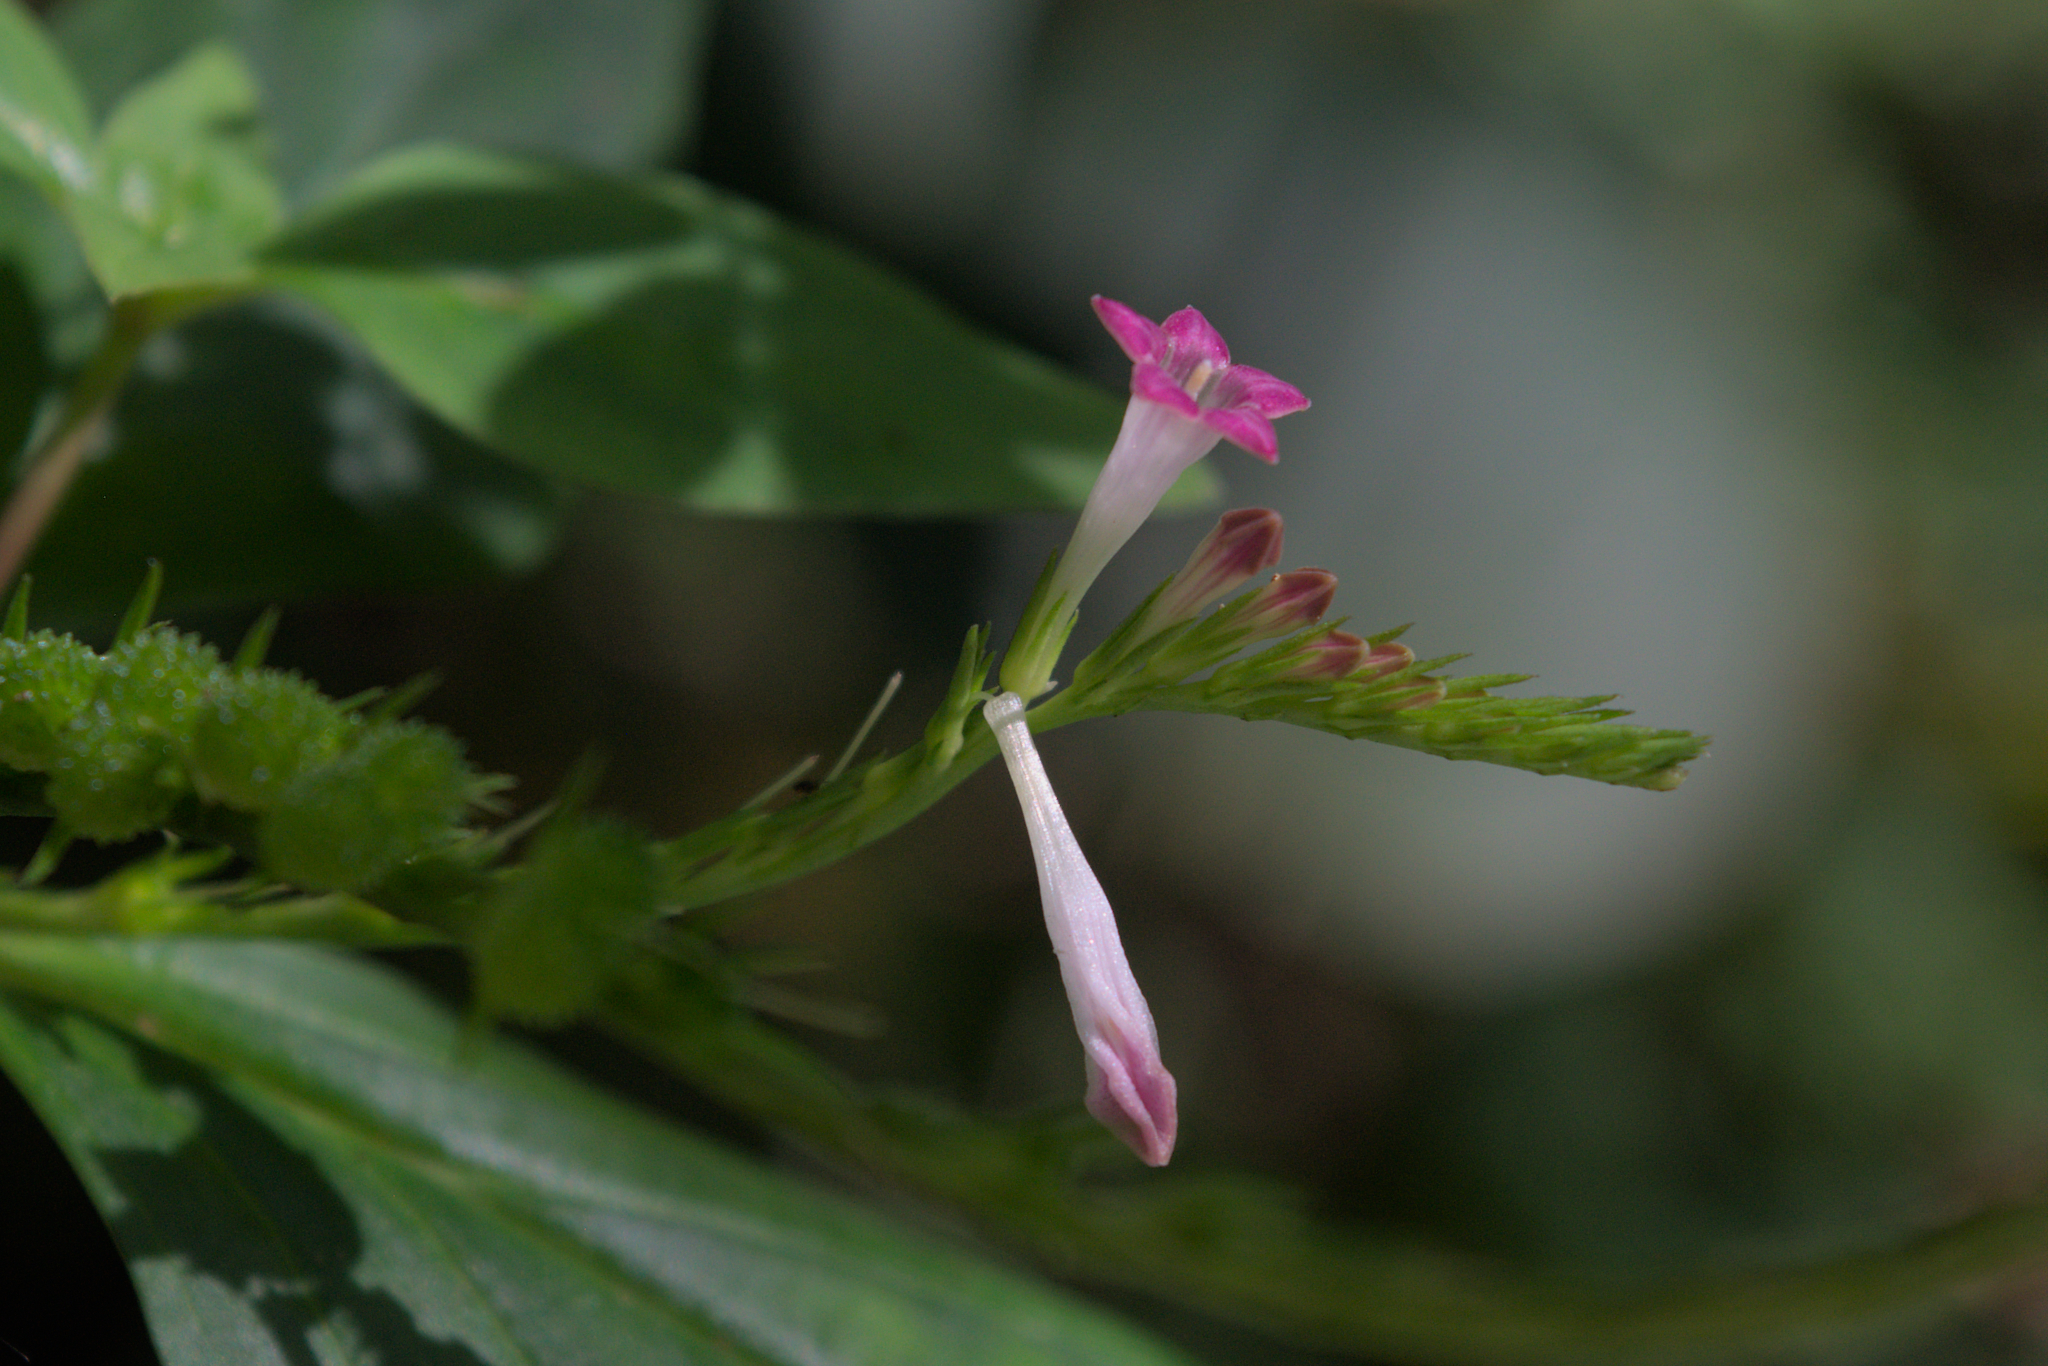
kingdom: Plantae
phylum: Tracheophyta
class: Magnoliopsida
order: Gentianales
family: Loganiaceae
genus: Spigelia
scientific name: Spigelia hamellioides
